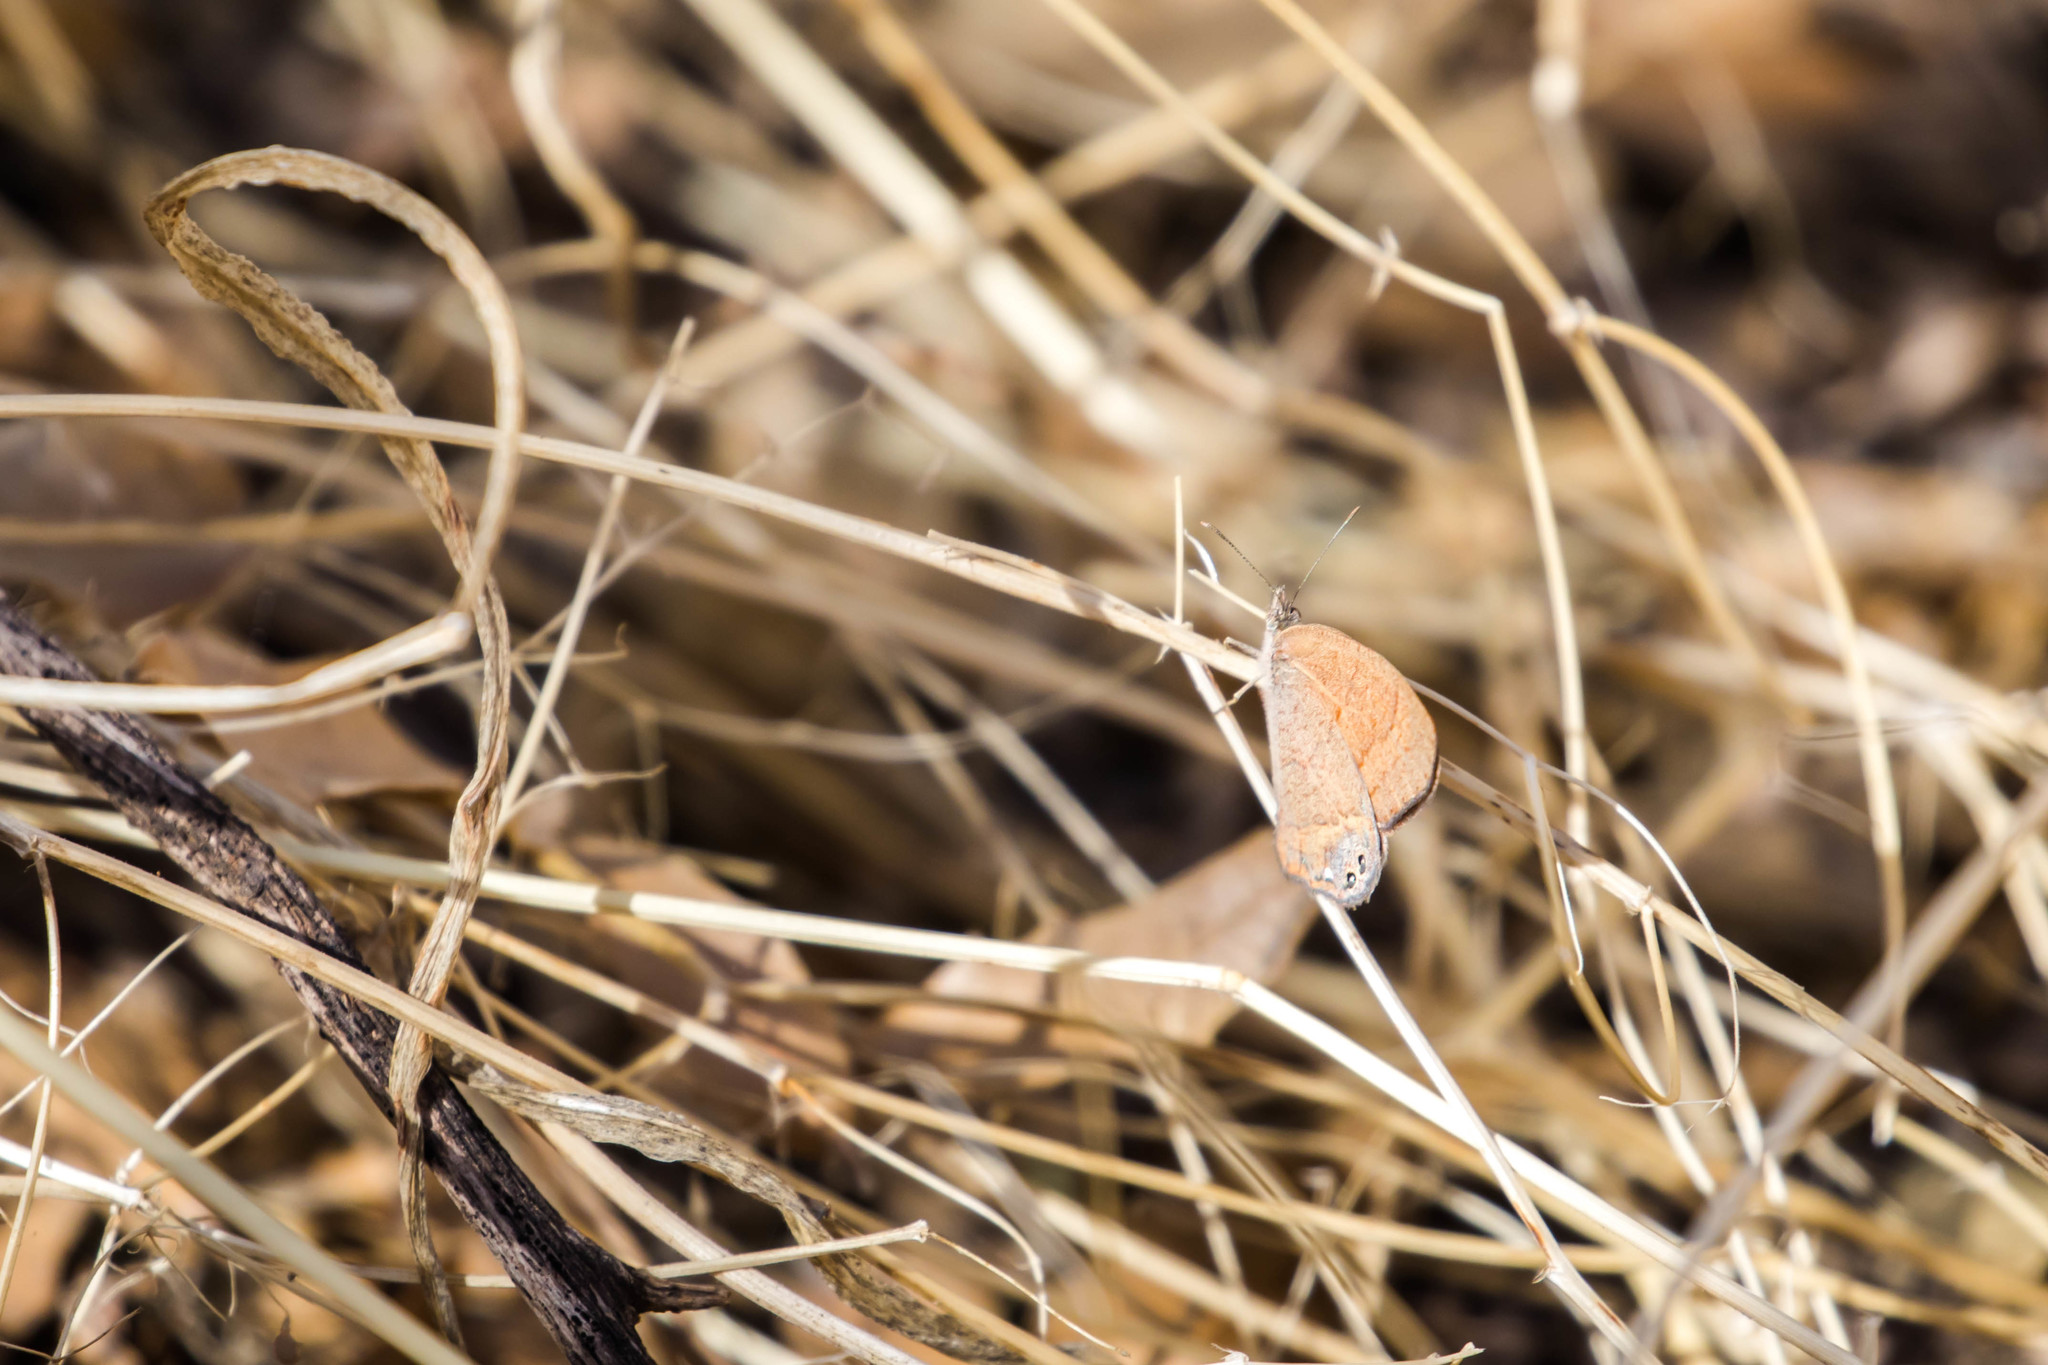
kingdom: Animalia
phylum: Arthropoda
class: Insecta
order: Lepidoptera
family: Nymphalidae
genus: Euptychia
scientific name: Euptychia pyracmon
